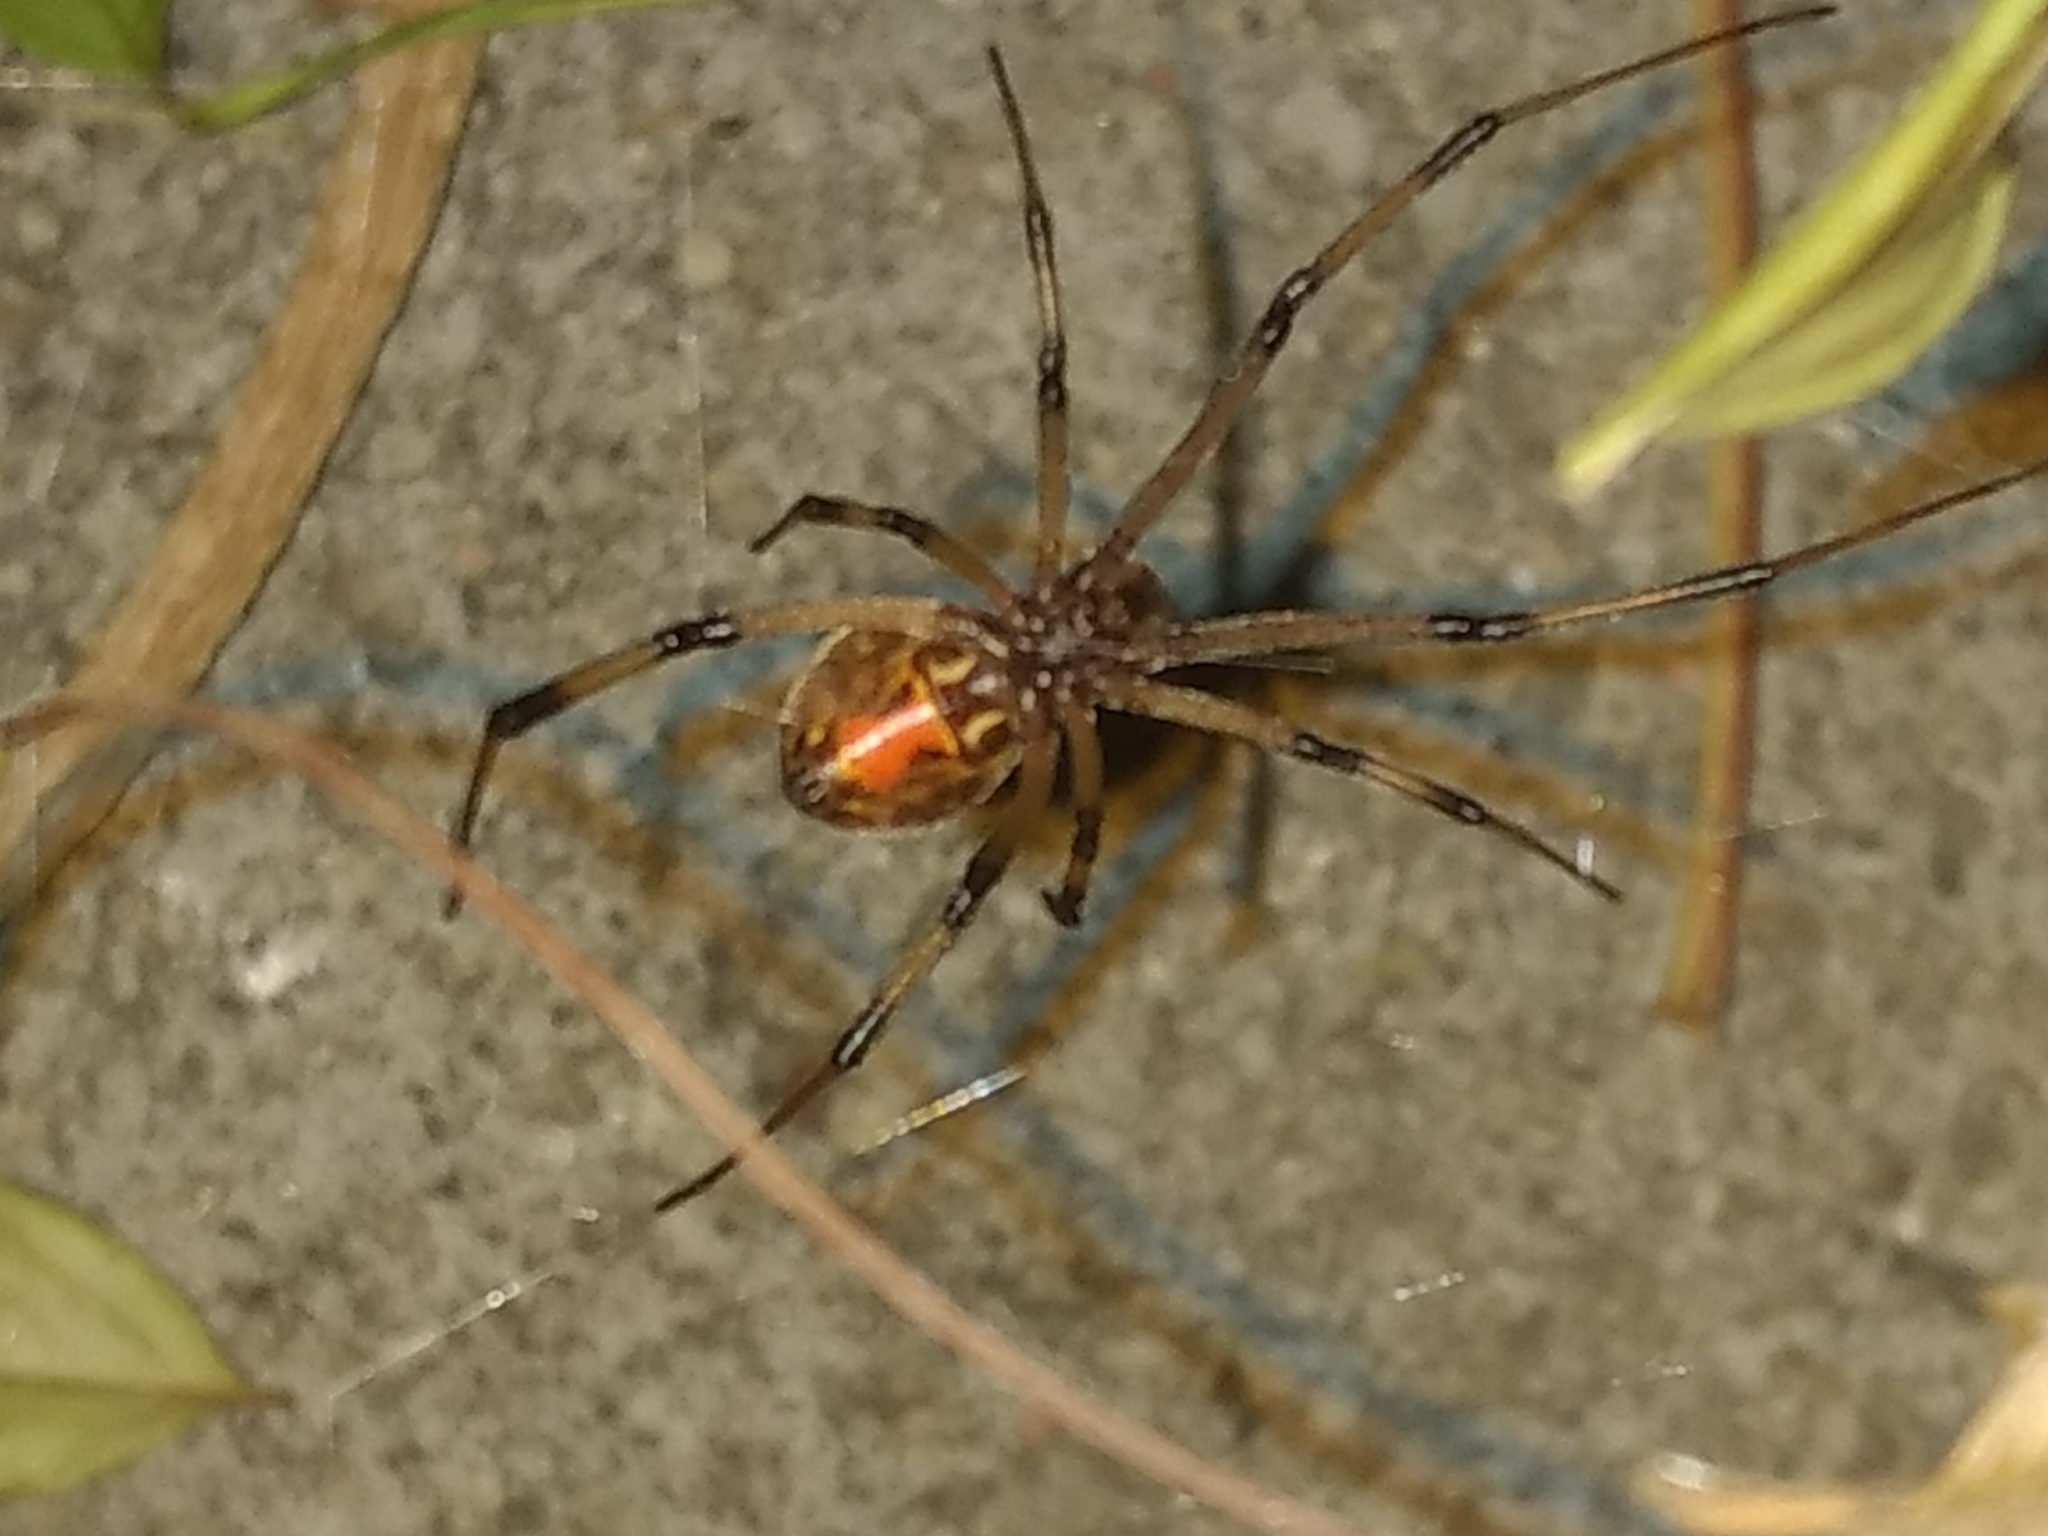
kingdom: Animalia
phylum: Arthropoda
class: Arachnida
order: Araneae
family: Theridiidae
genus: Latrodectus
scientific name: Latrodectus geometricus
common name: Brown widow spider
